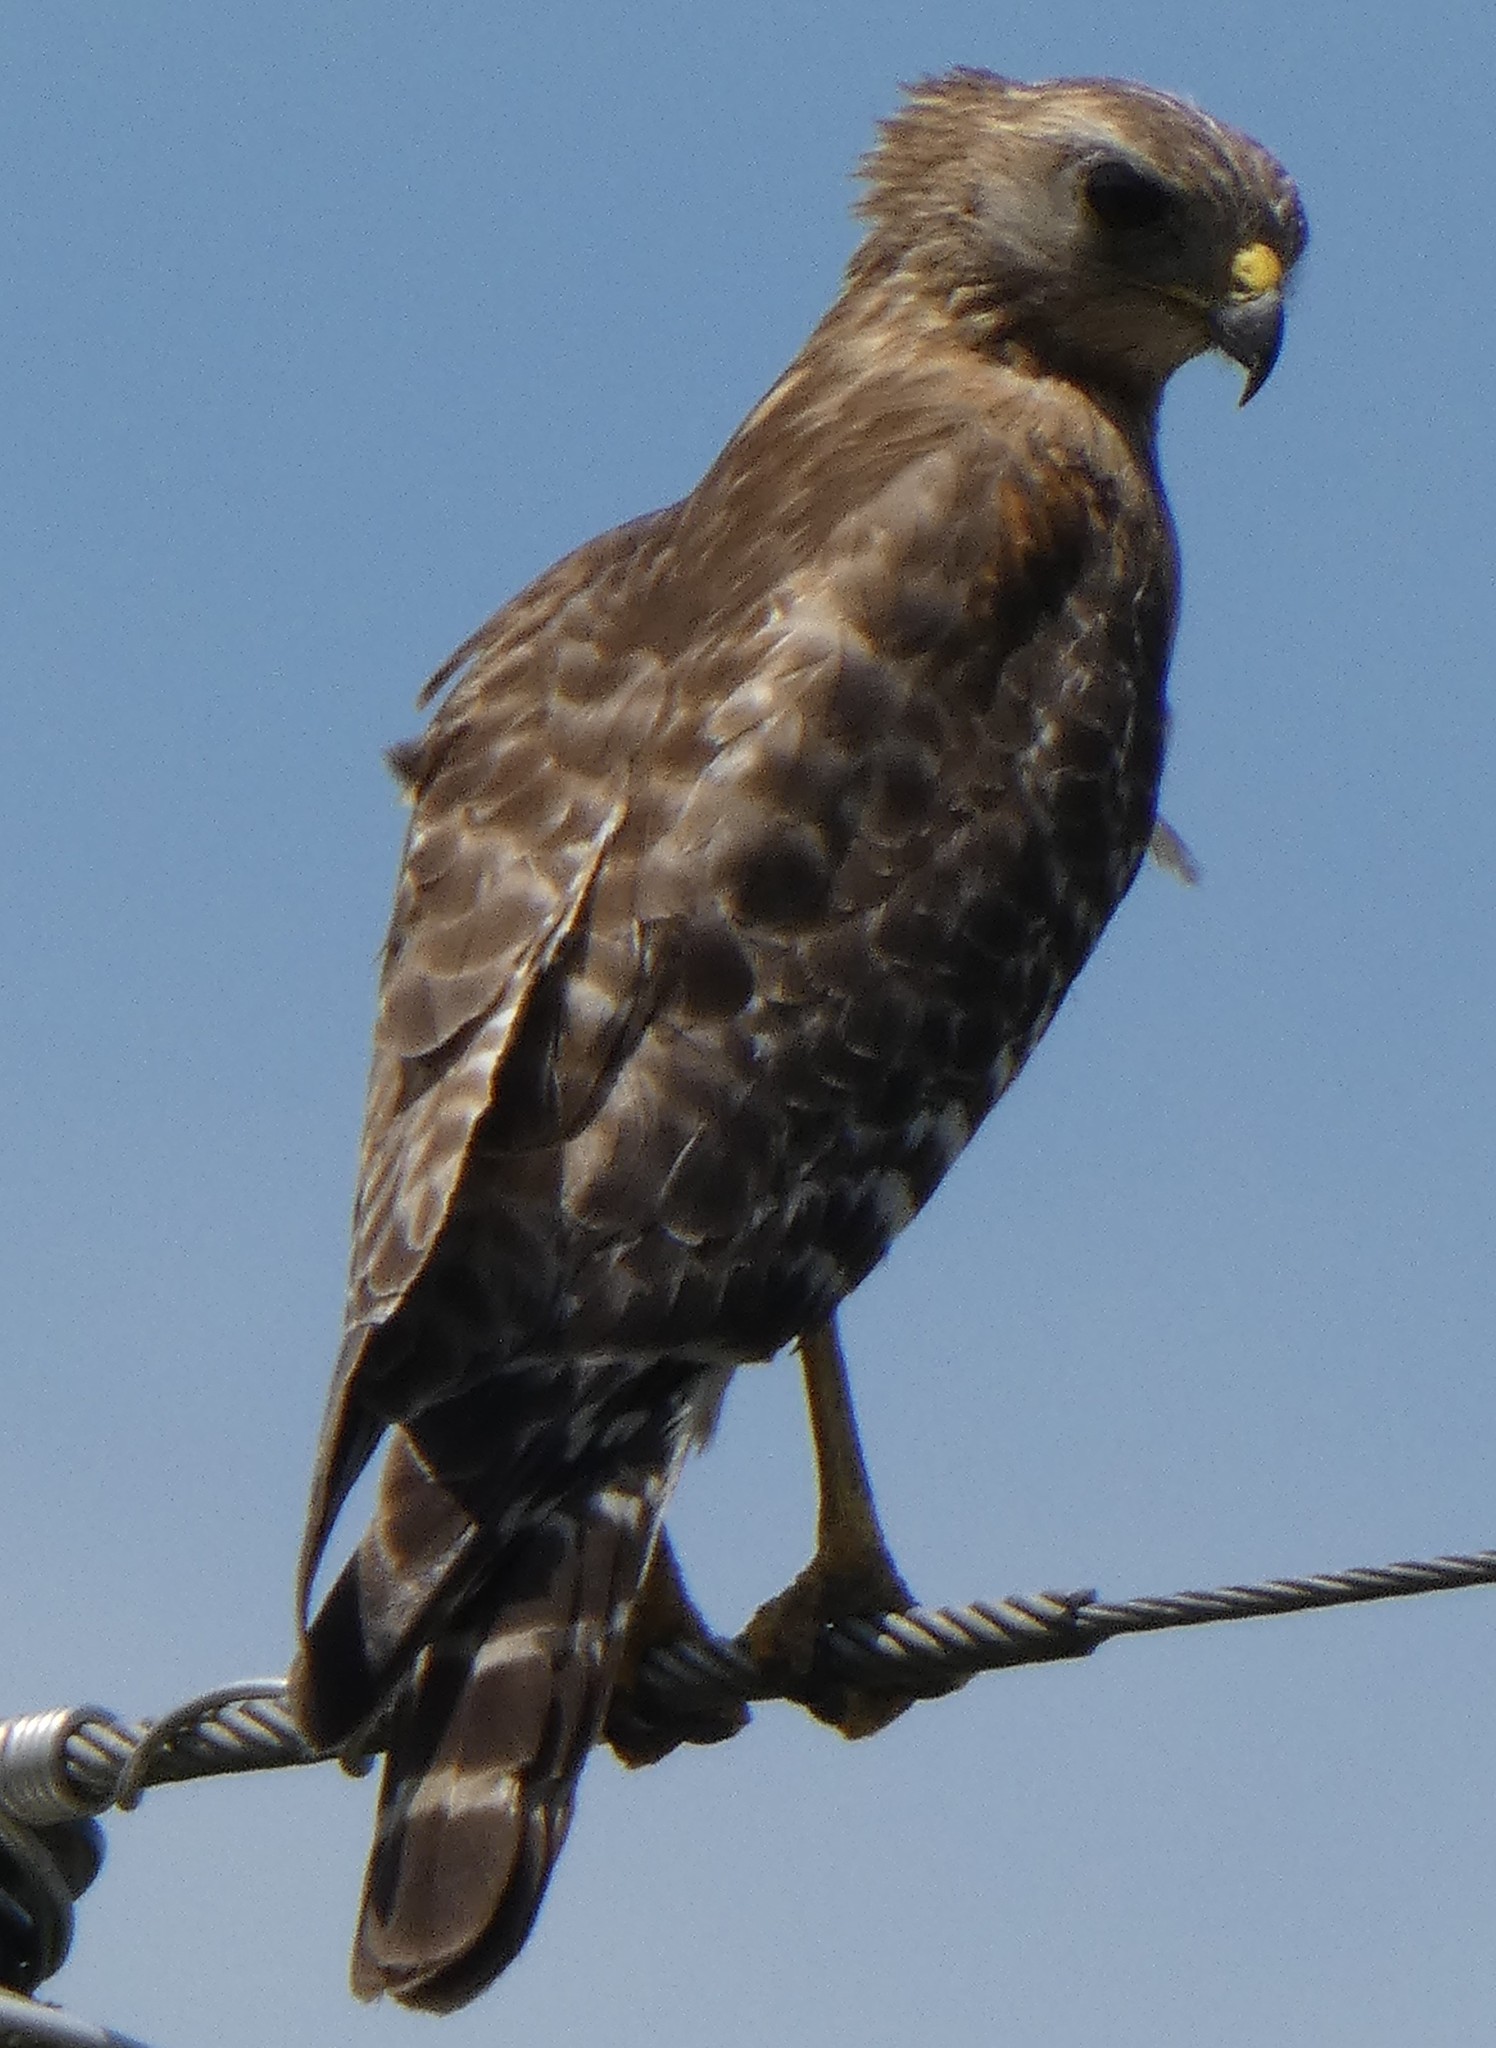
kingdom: Animalia
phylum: Chordata
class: Aves
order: Accipitriformes
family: Accipitridae
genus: Buteo
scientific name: Buteo lineatus
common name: Red-shouldered hawk
